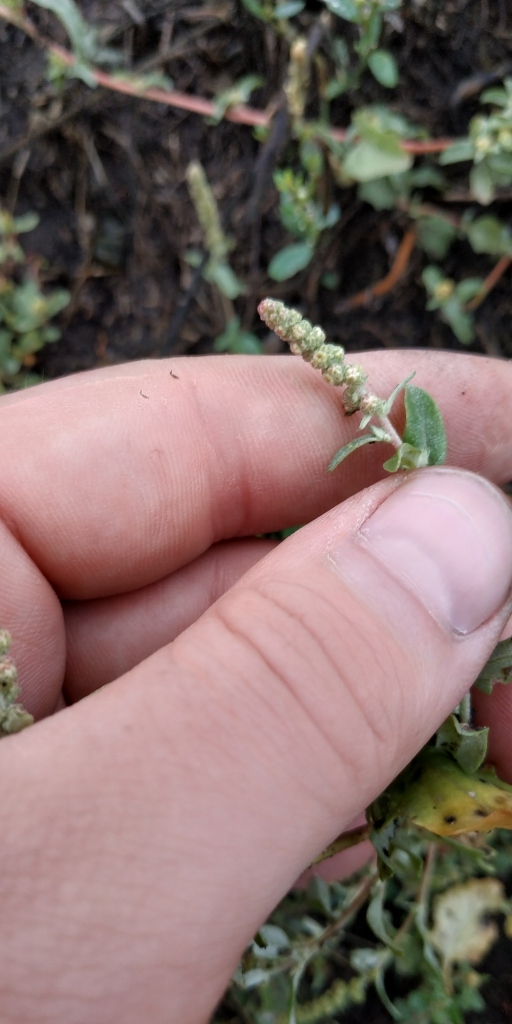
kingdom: Plantae
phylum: Tracheophyta
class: Magnoliopsida
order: Caryophyllales
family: Amaranthaceae
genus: Atriplex
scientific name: Atriplex tatarica
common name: Tatarian orache
